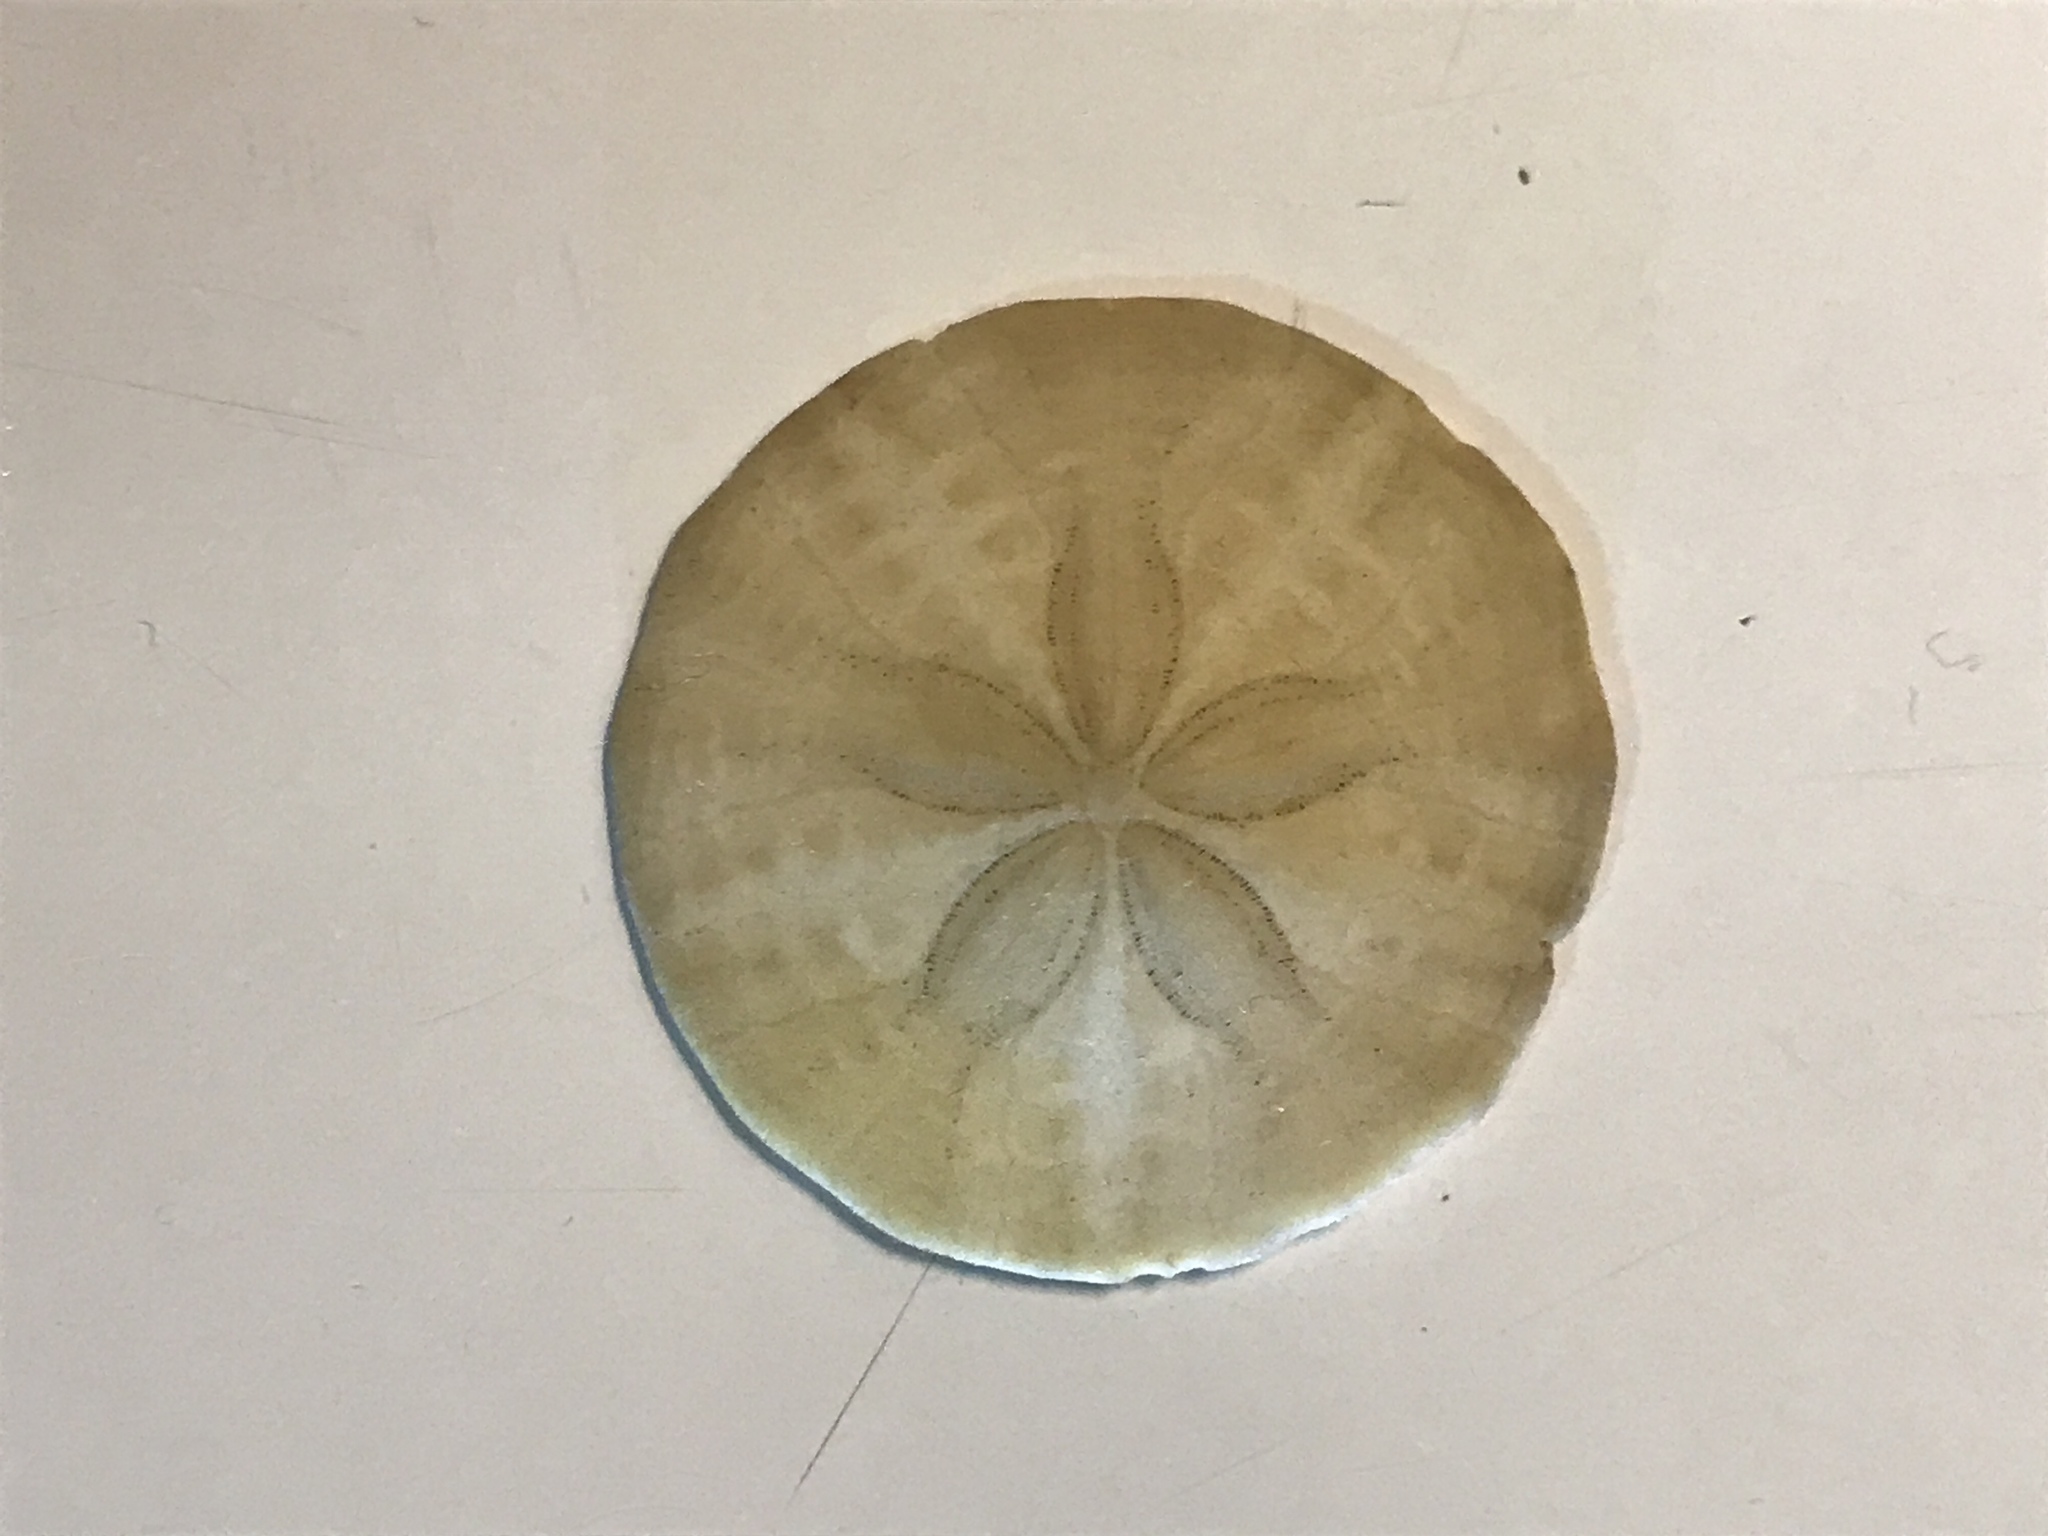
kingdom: Animalia
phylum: Echinodermata
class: Echinoidea
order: Echinolampadacea
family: Echinarachniidae
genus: Echinarachnius
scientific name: Echinarachnius parma
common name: Common sand dollar
